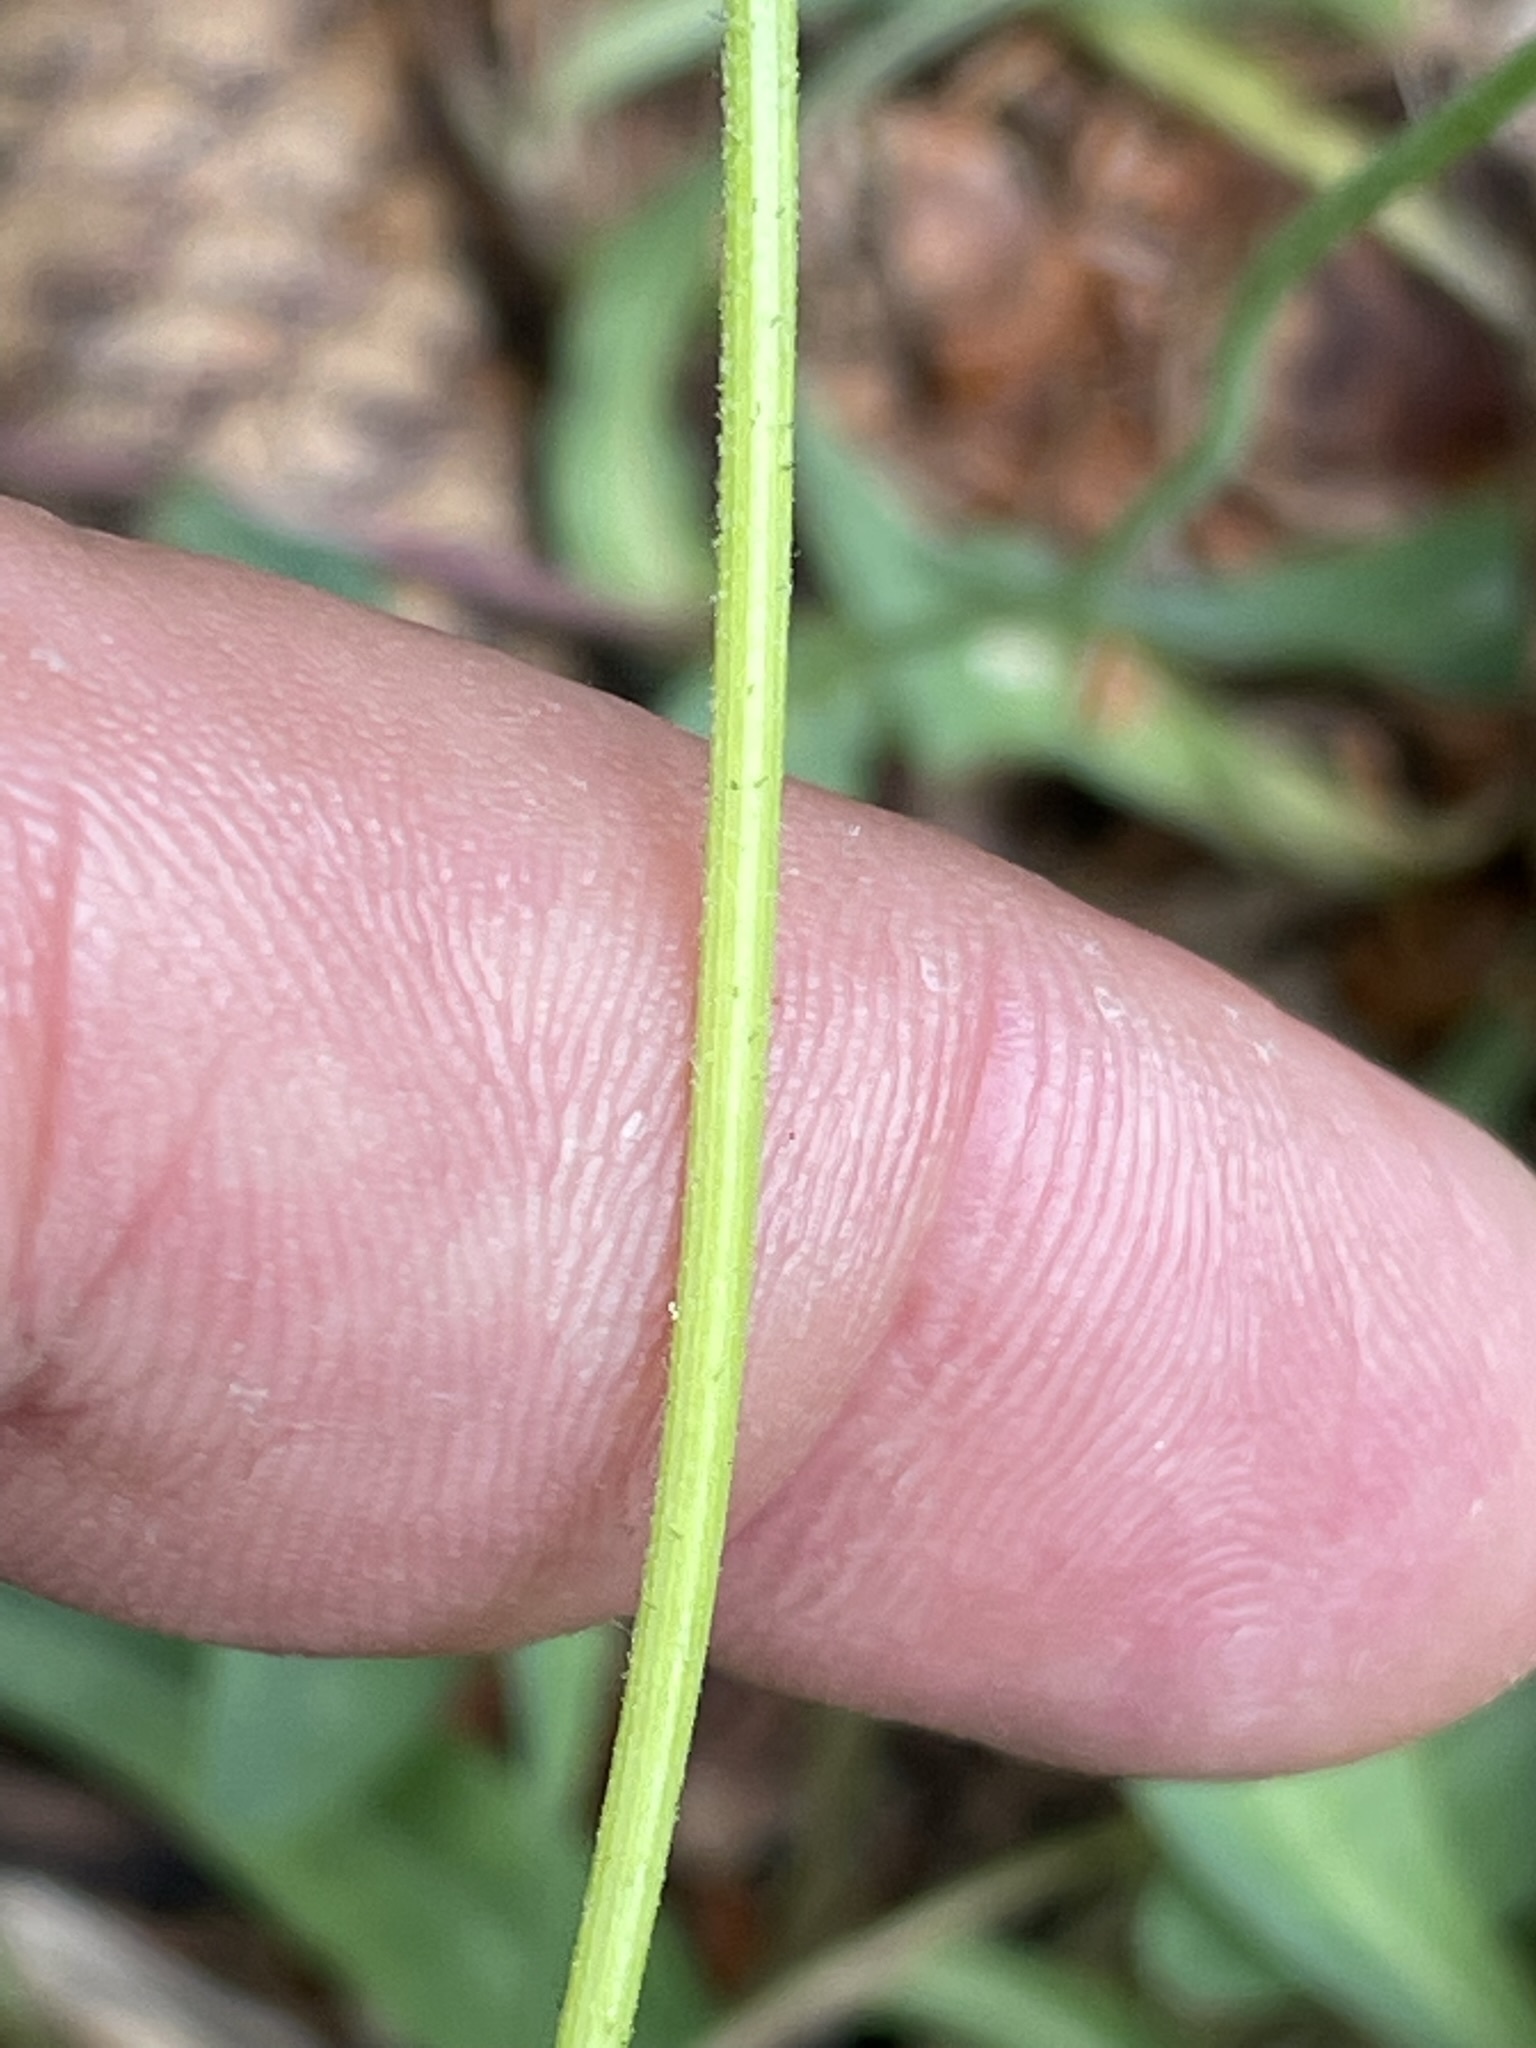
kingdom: Plantae
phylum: Tracheophyta
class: Magnoliopsida
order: Asterales
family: Asteraceae
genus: Pilosella
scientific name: Pilosella lactucella
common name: Glaucous fox-and-cubs
